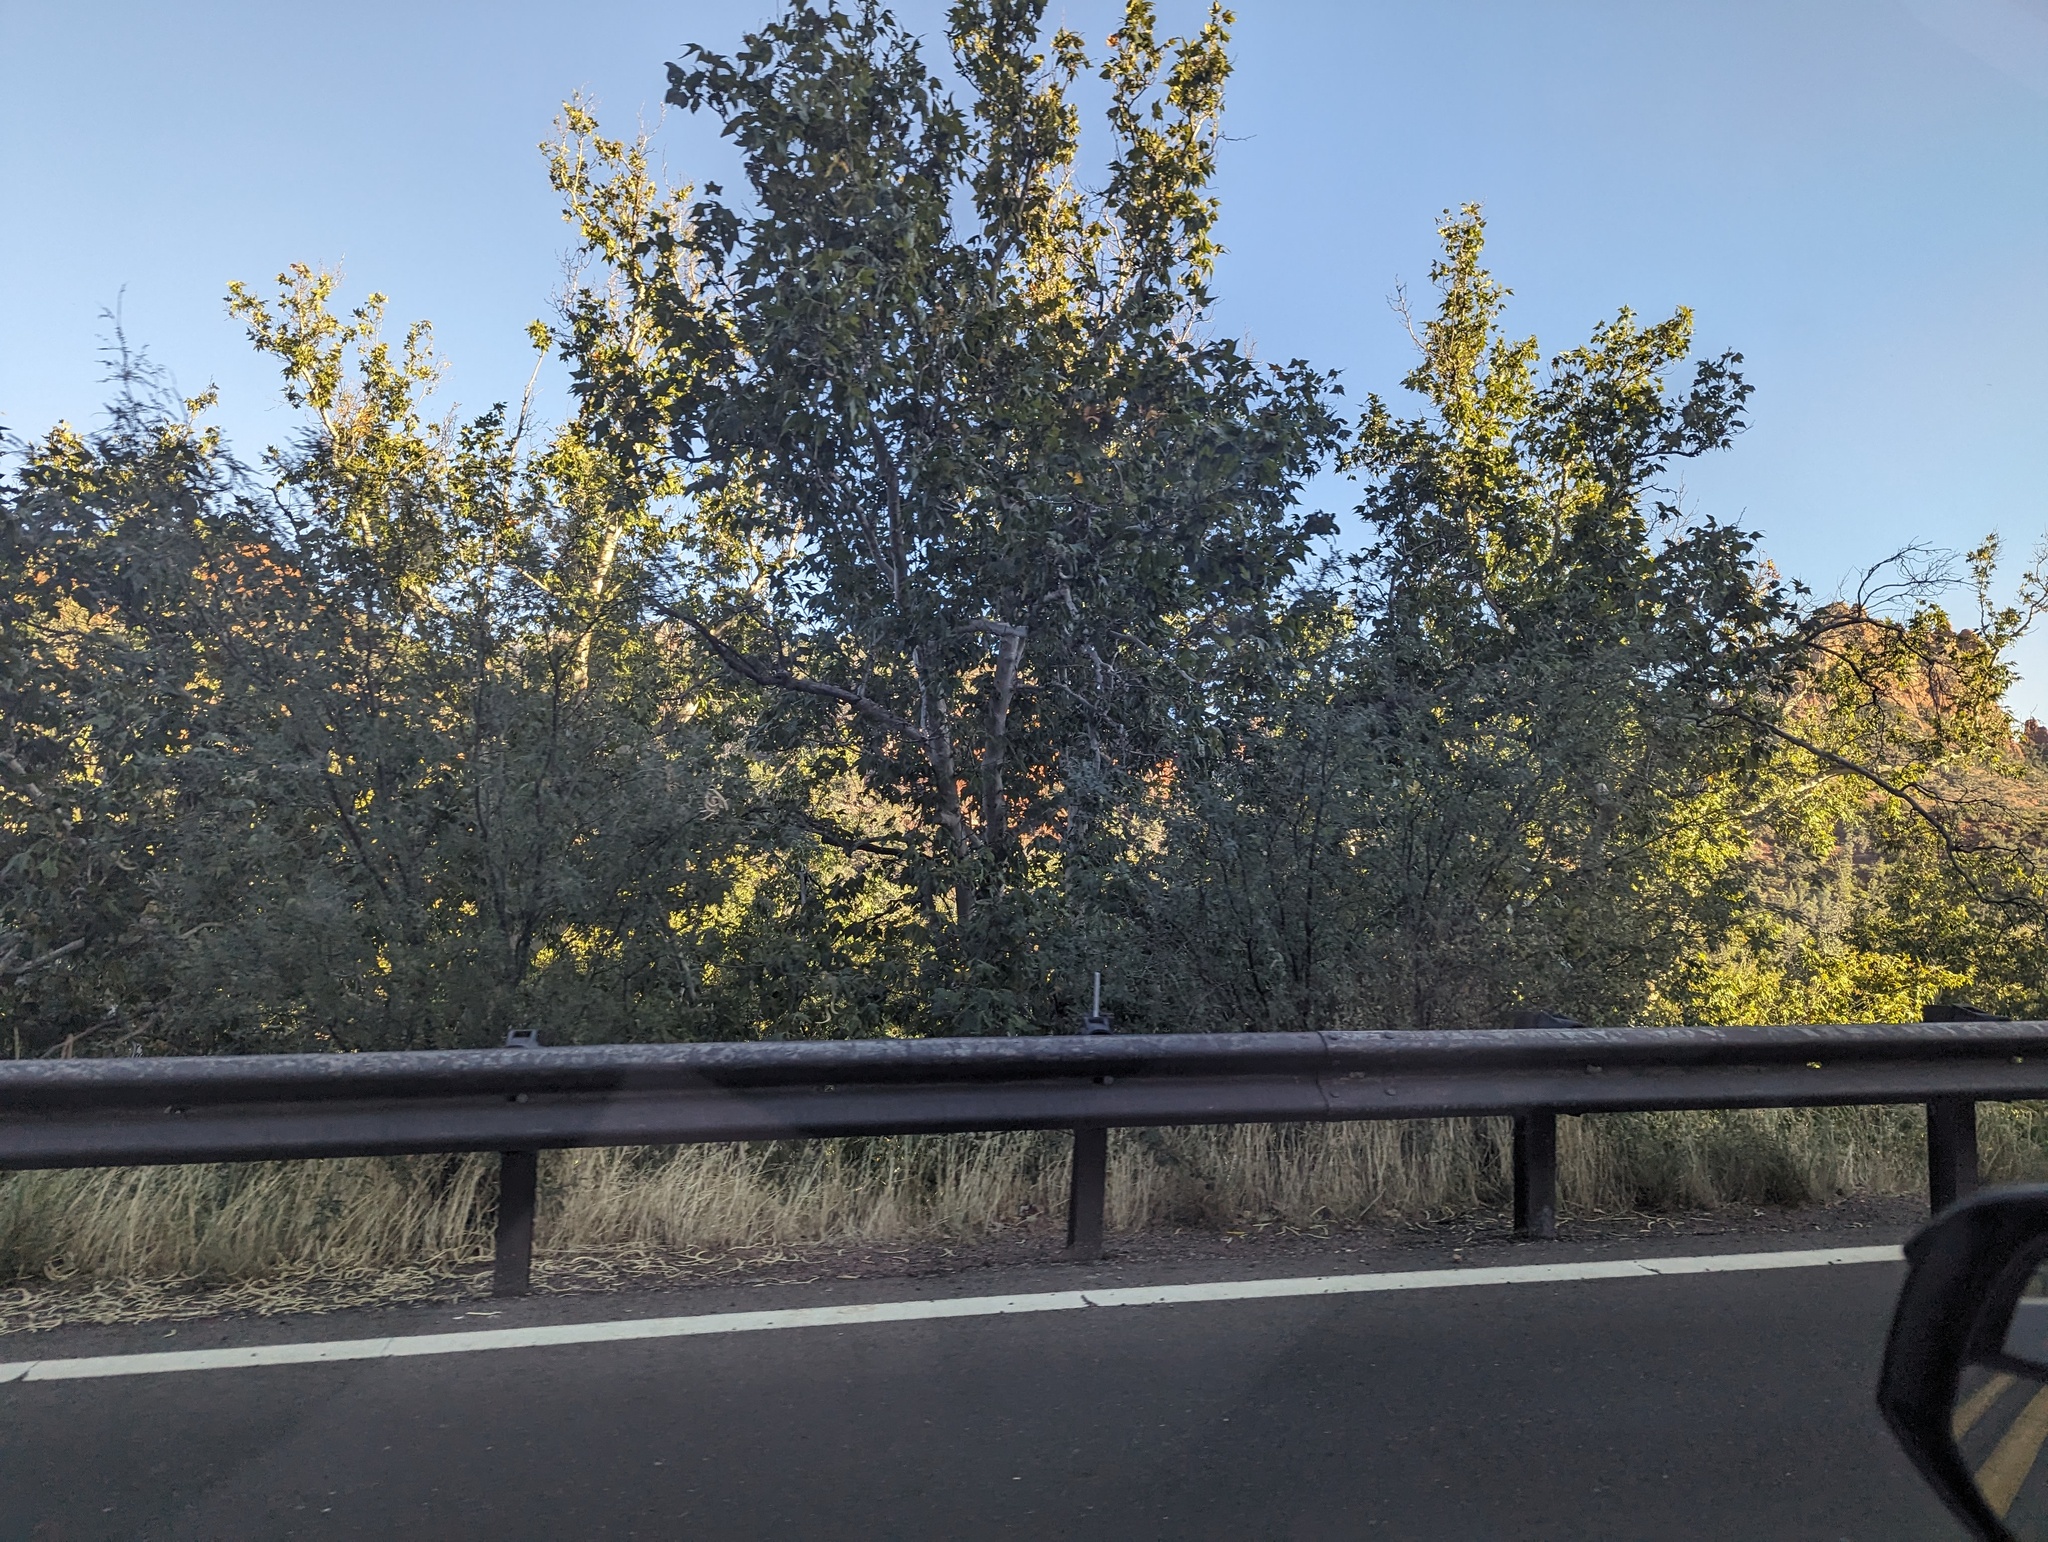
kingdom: Plantae
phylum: Tracheophyta
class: Magnoliopsida
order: Proteales
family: Platanaceae
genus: Platanus
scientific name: Platanus wrightii
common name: Arizona sycamore
